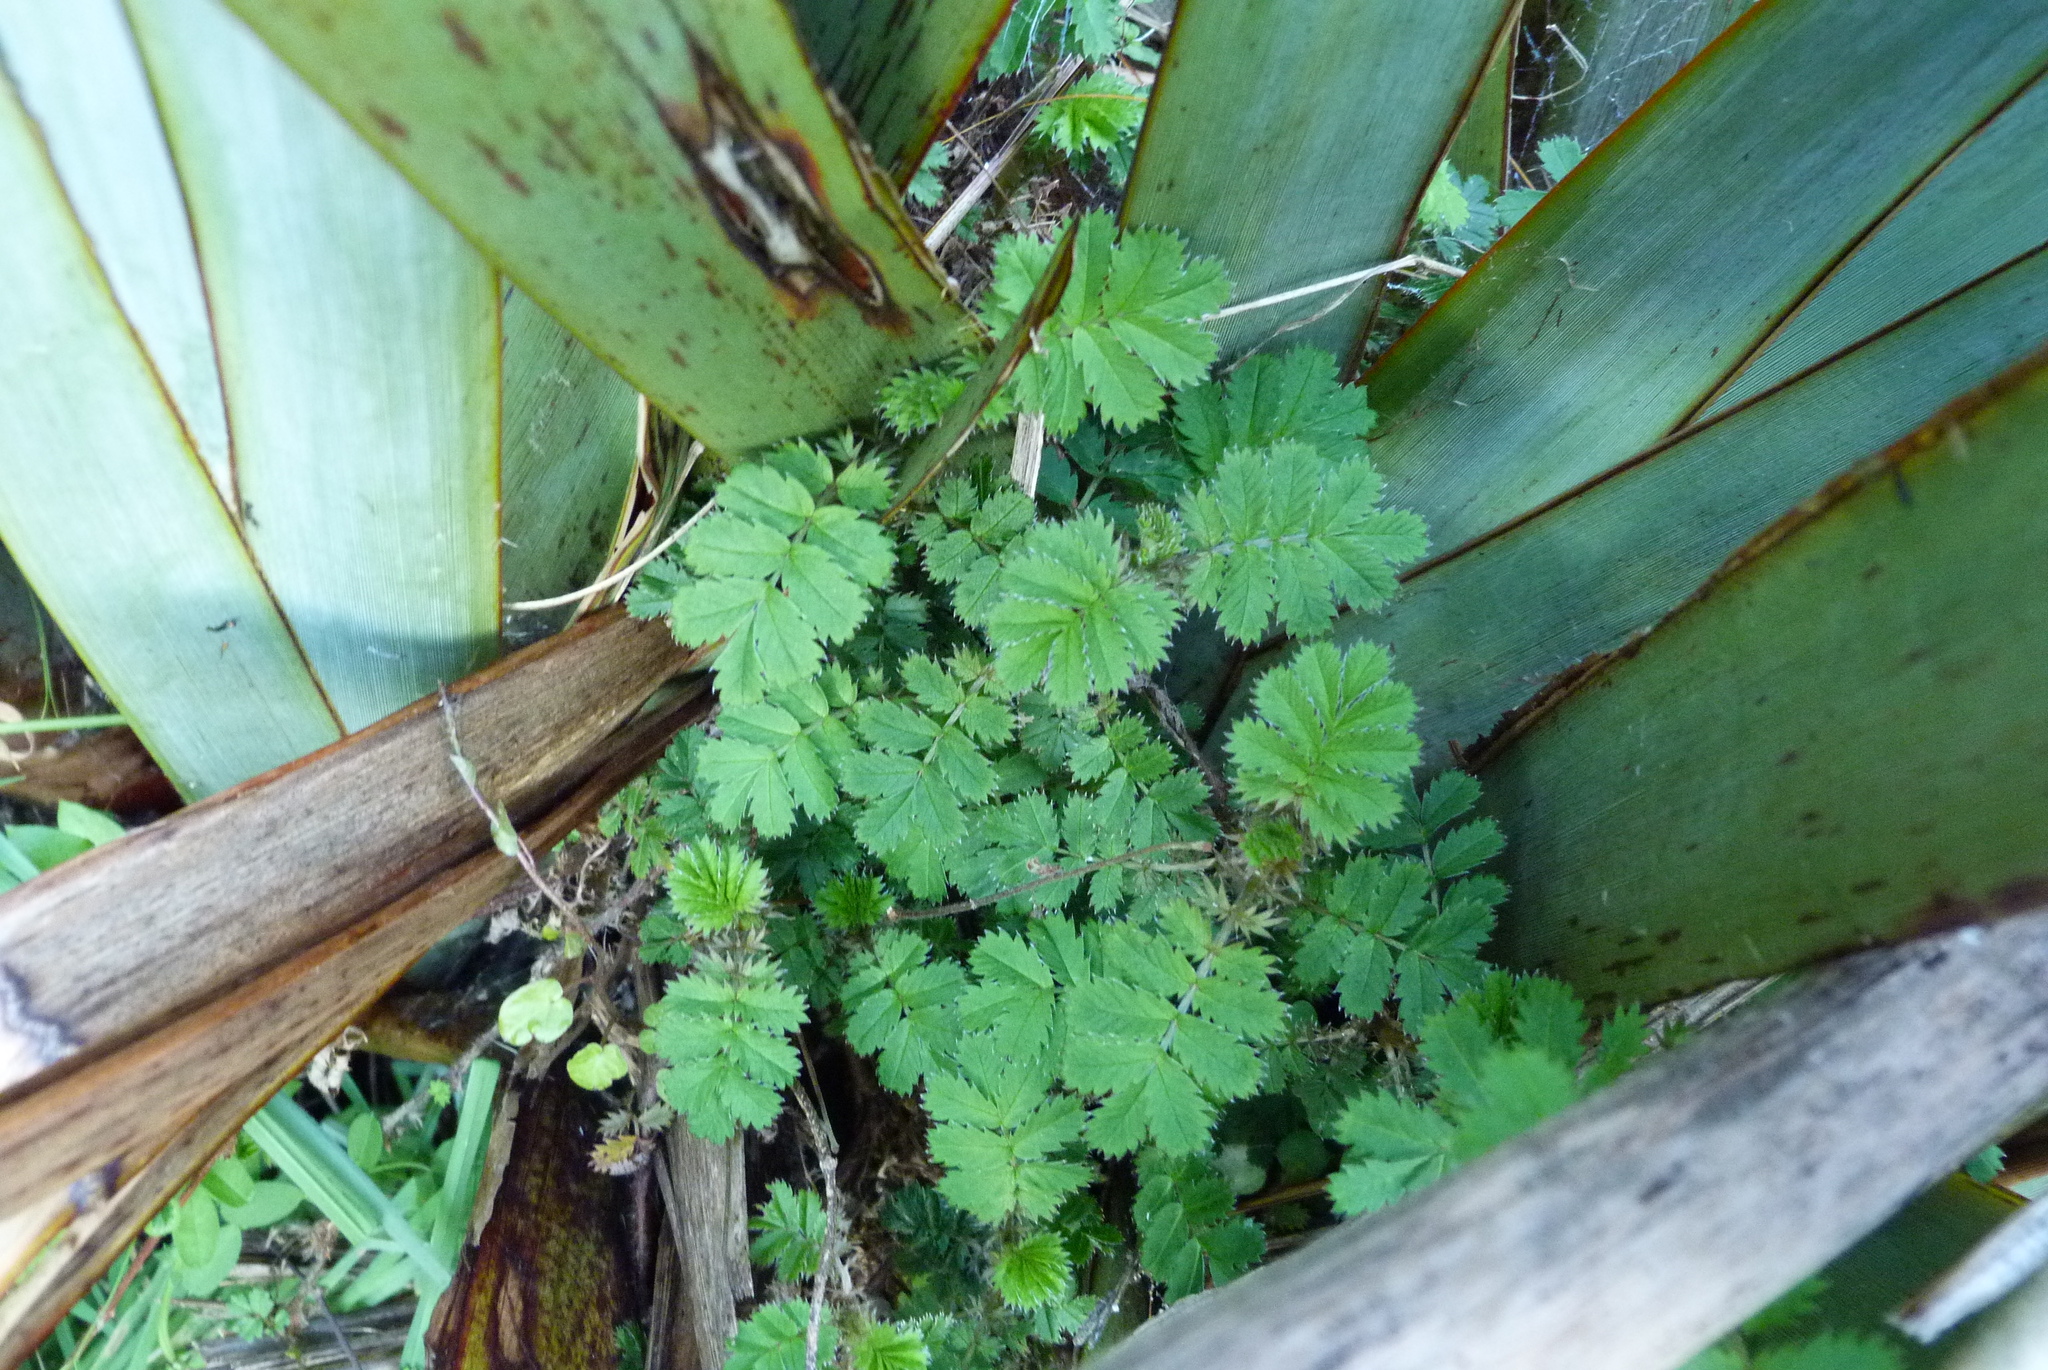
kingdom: Plantae
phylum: Tracheophyta
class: Magnoliopsida
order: Rosales
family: Rosaceae
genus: Acaena
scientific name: Acaena anserinifolia
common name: Bronze pirri-pirri-bur
